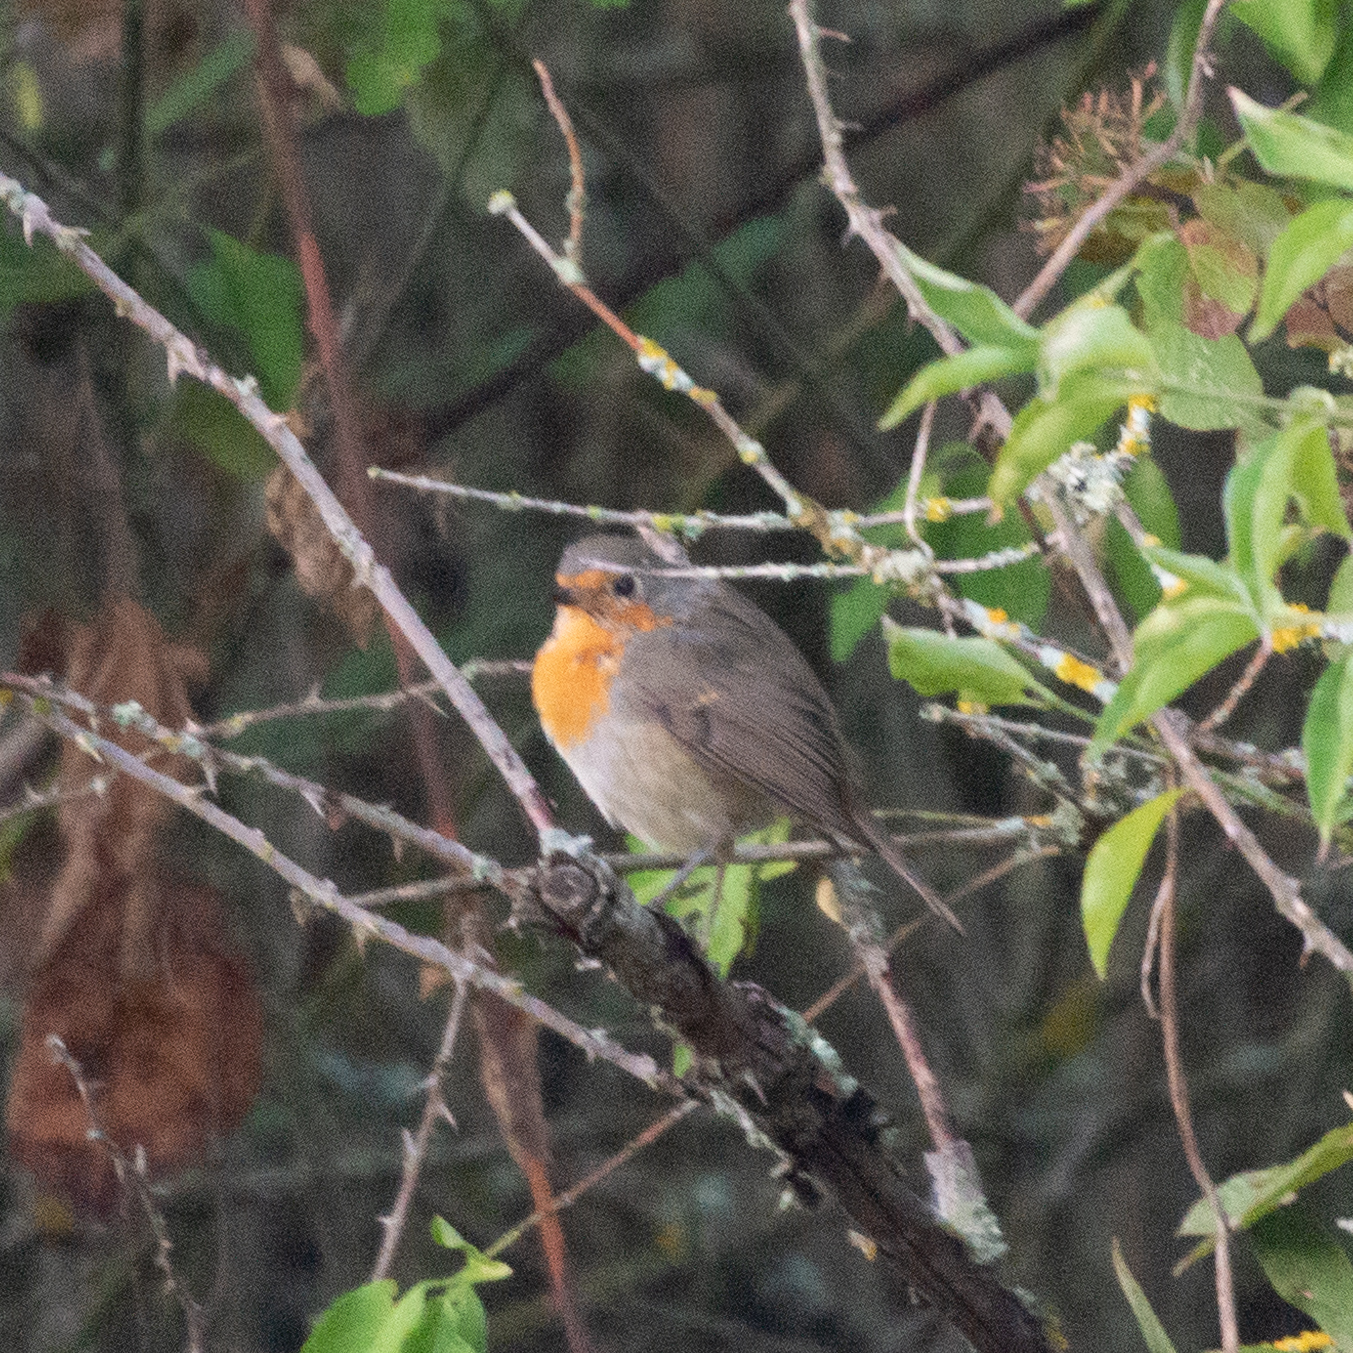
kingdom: Animalia
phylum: Chordata
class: Aves
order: Passeriformes
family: Muscicapidae
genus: Erithacus
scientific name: Erithacus rubecula
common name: European robin
